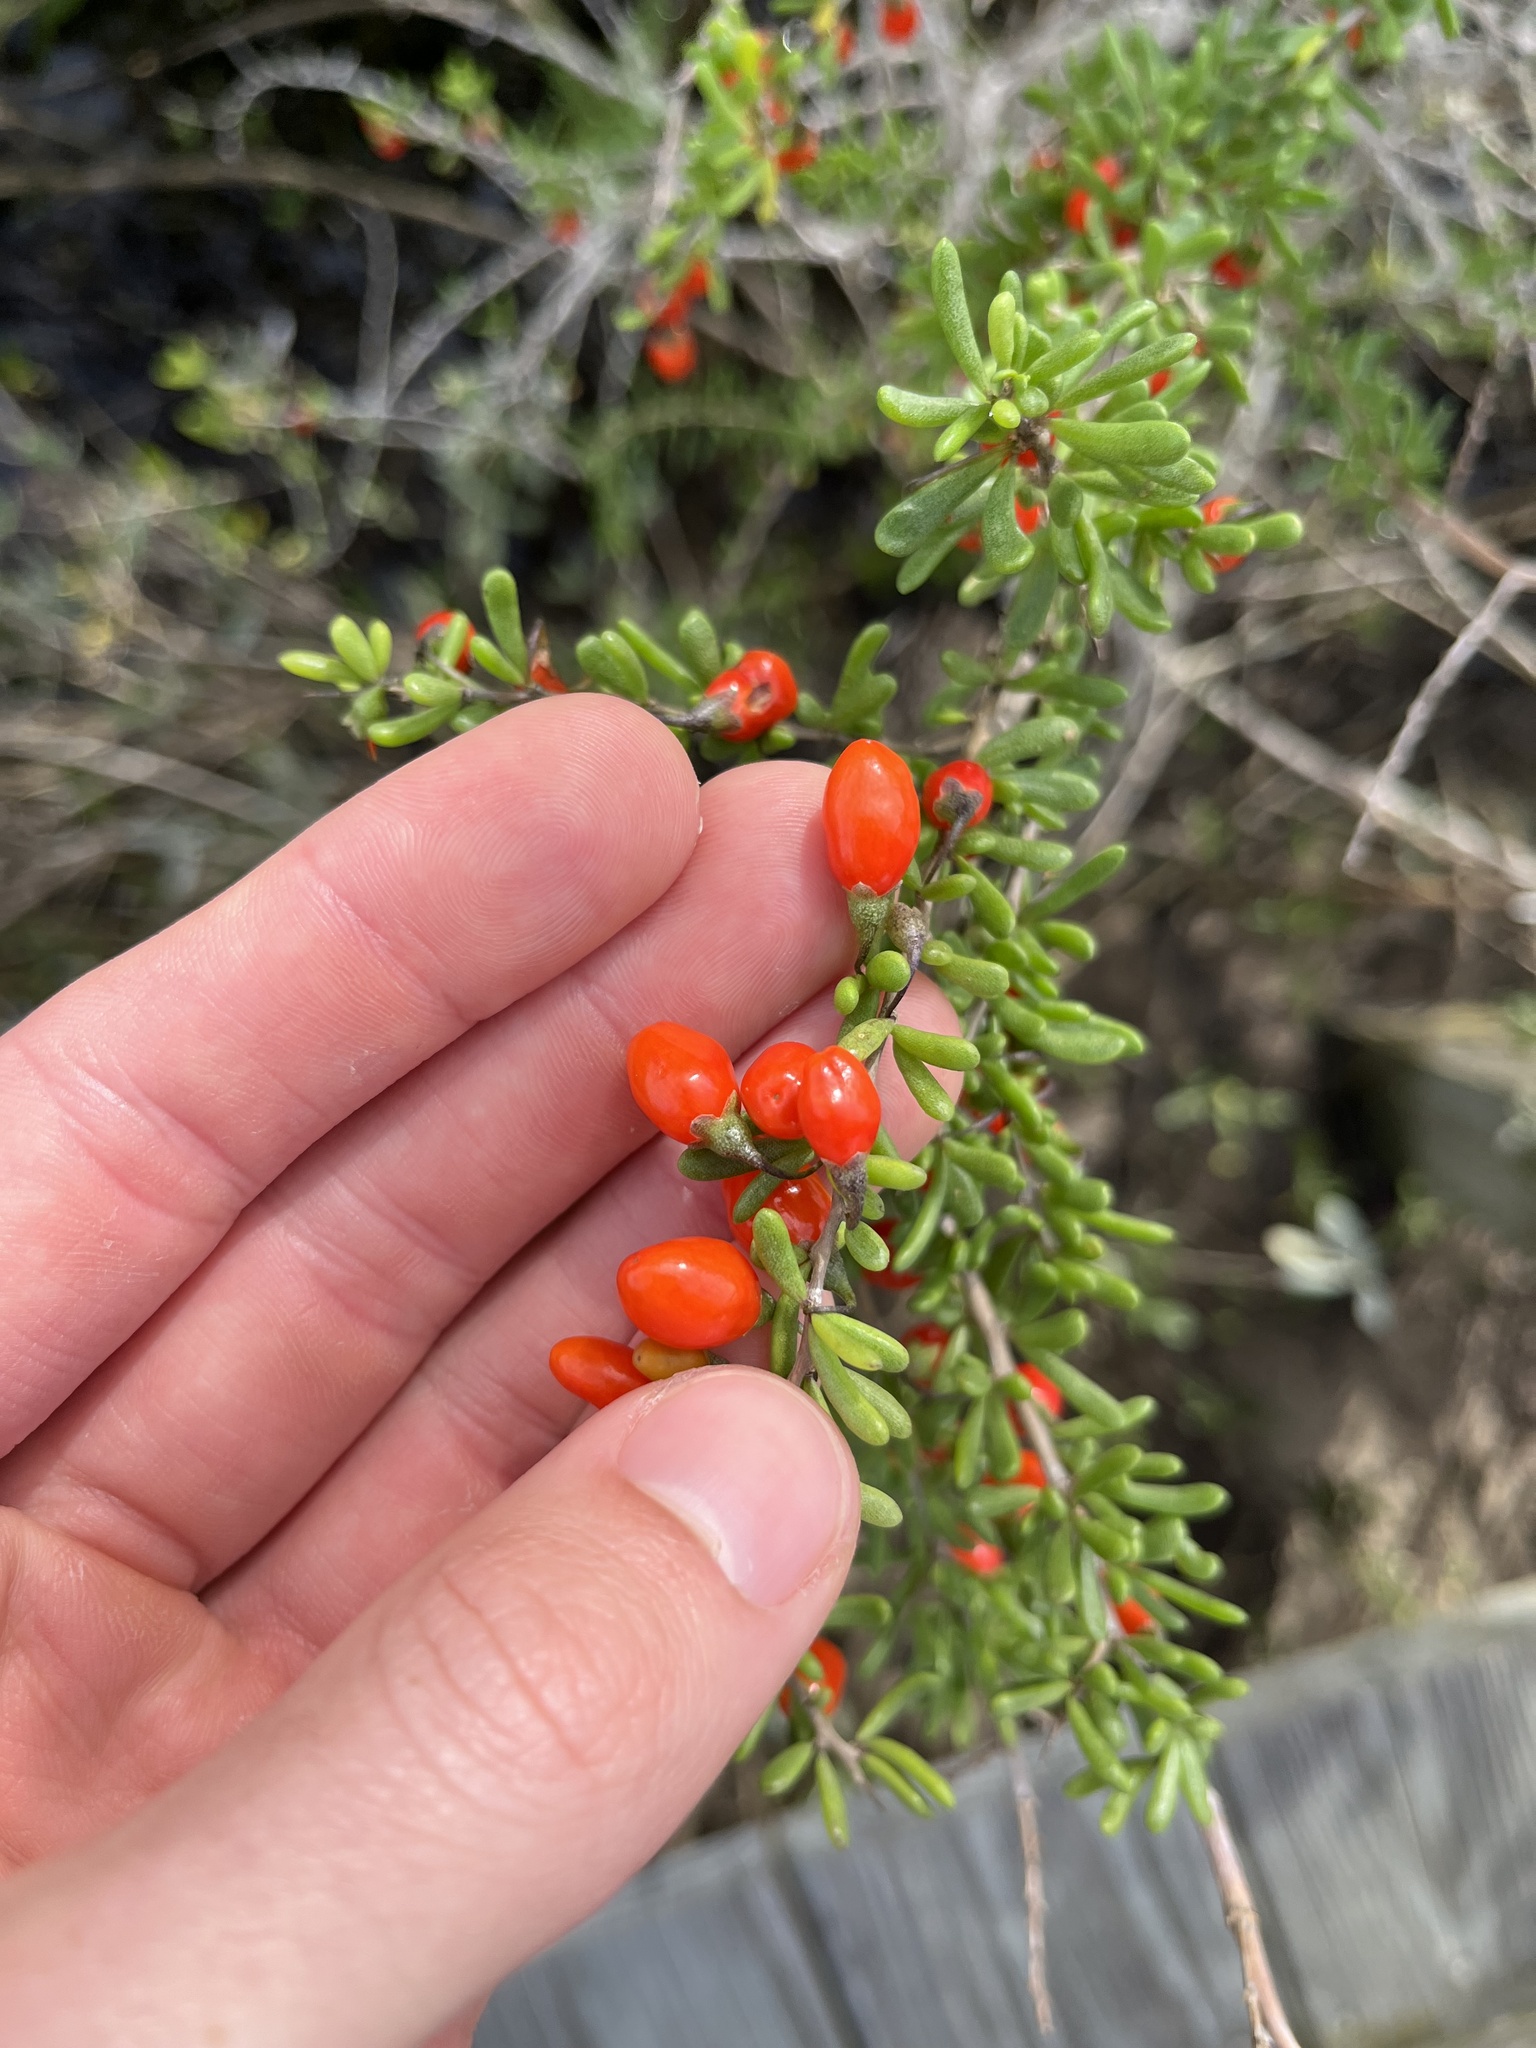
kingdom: Plantae
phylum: Tracheophyta
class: Magnoliopsida
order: Solanales
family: Solanaceae
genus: Lycium
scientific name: Lycium carolinianum
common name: Christmasberry
